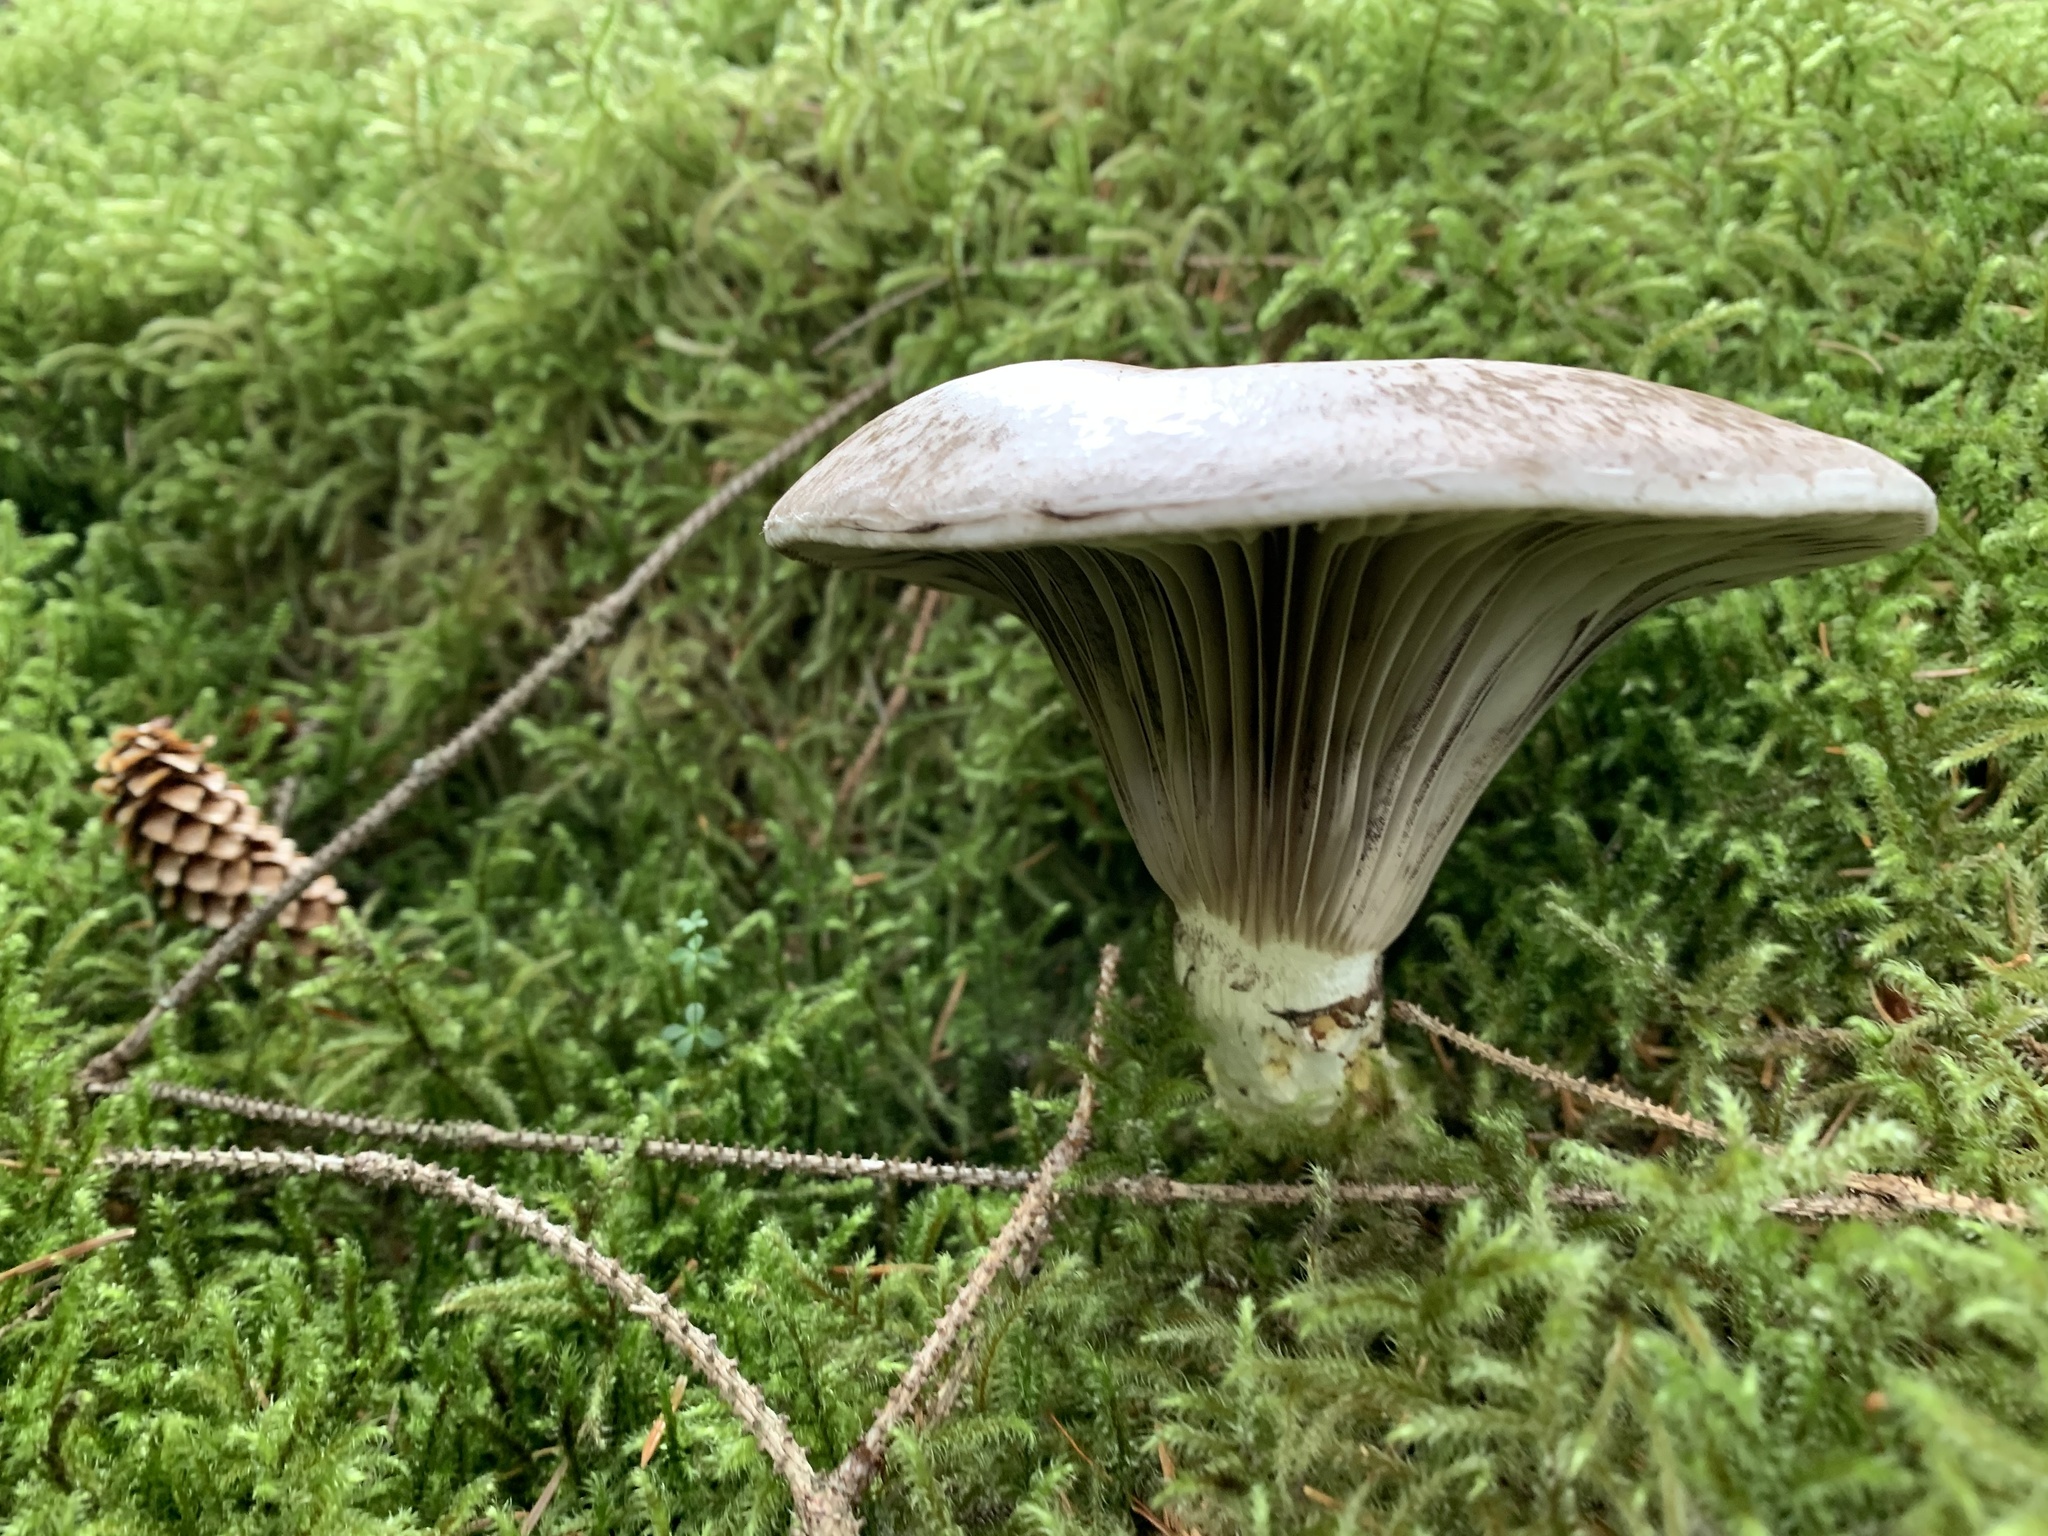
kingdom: Fungi
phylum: Basidiomycota
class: Agaricomycetes
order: Boletales
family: Gomphidiaceae
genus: Gomphidius
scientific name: Gomphidius glutinosus
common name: Slimy spike
